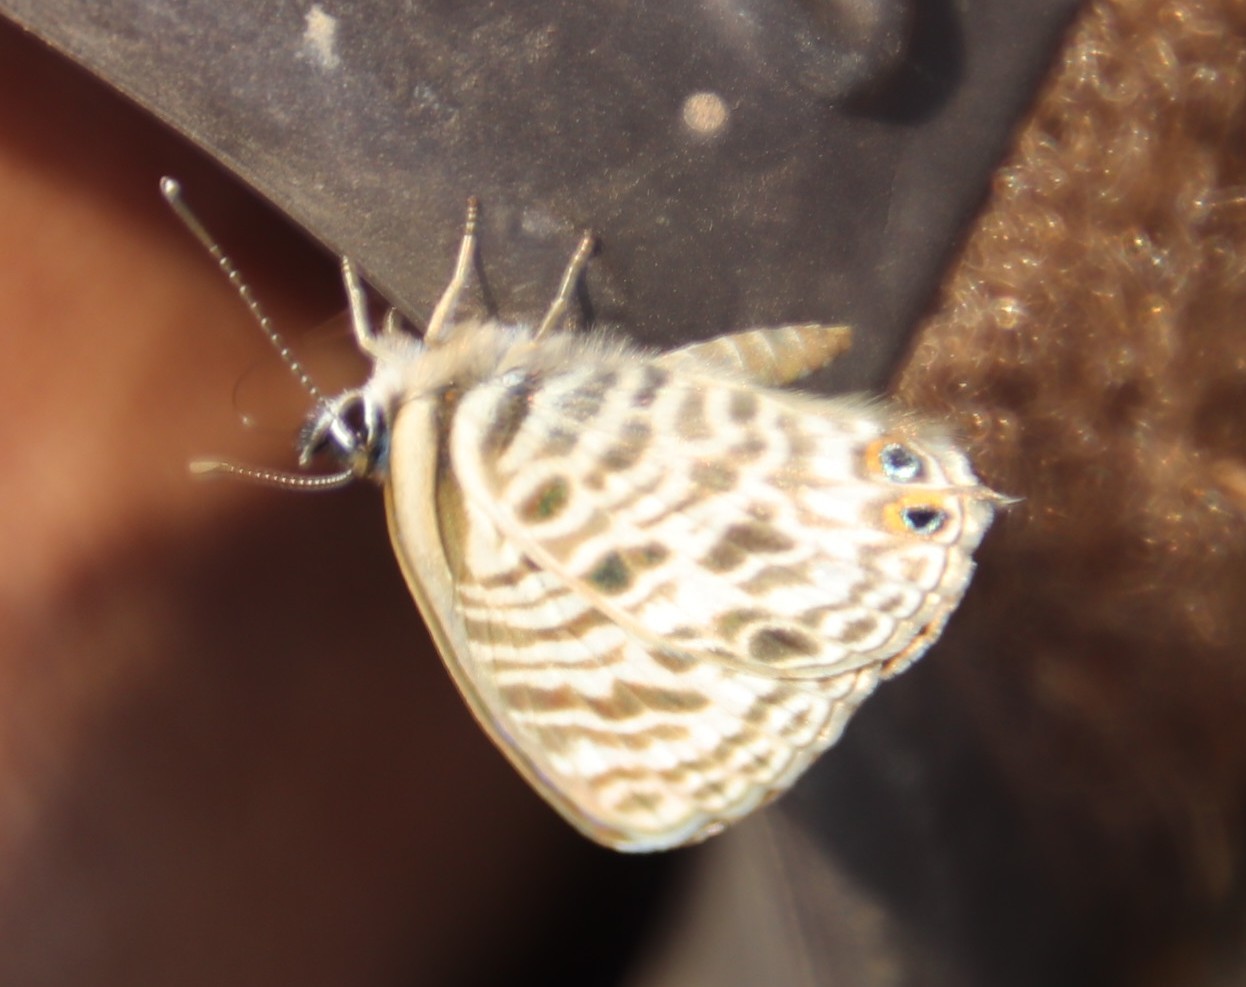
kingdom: Animalia
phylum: Arthropoda
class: Insecta
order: Lepidoptera
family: Lycaenidae
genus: Leptotes
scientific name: Leptotes
